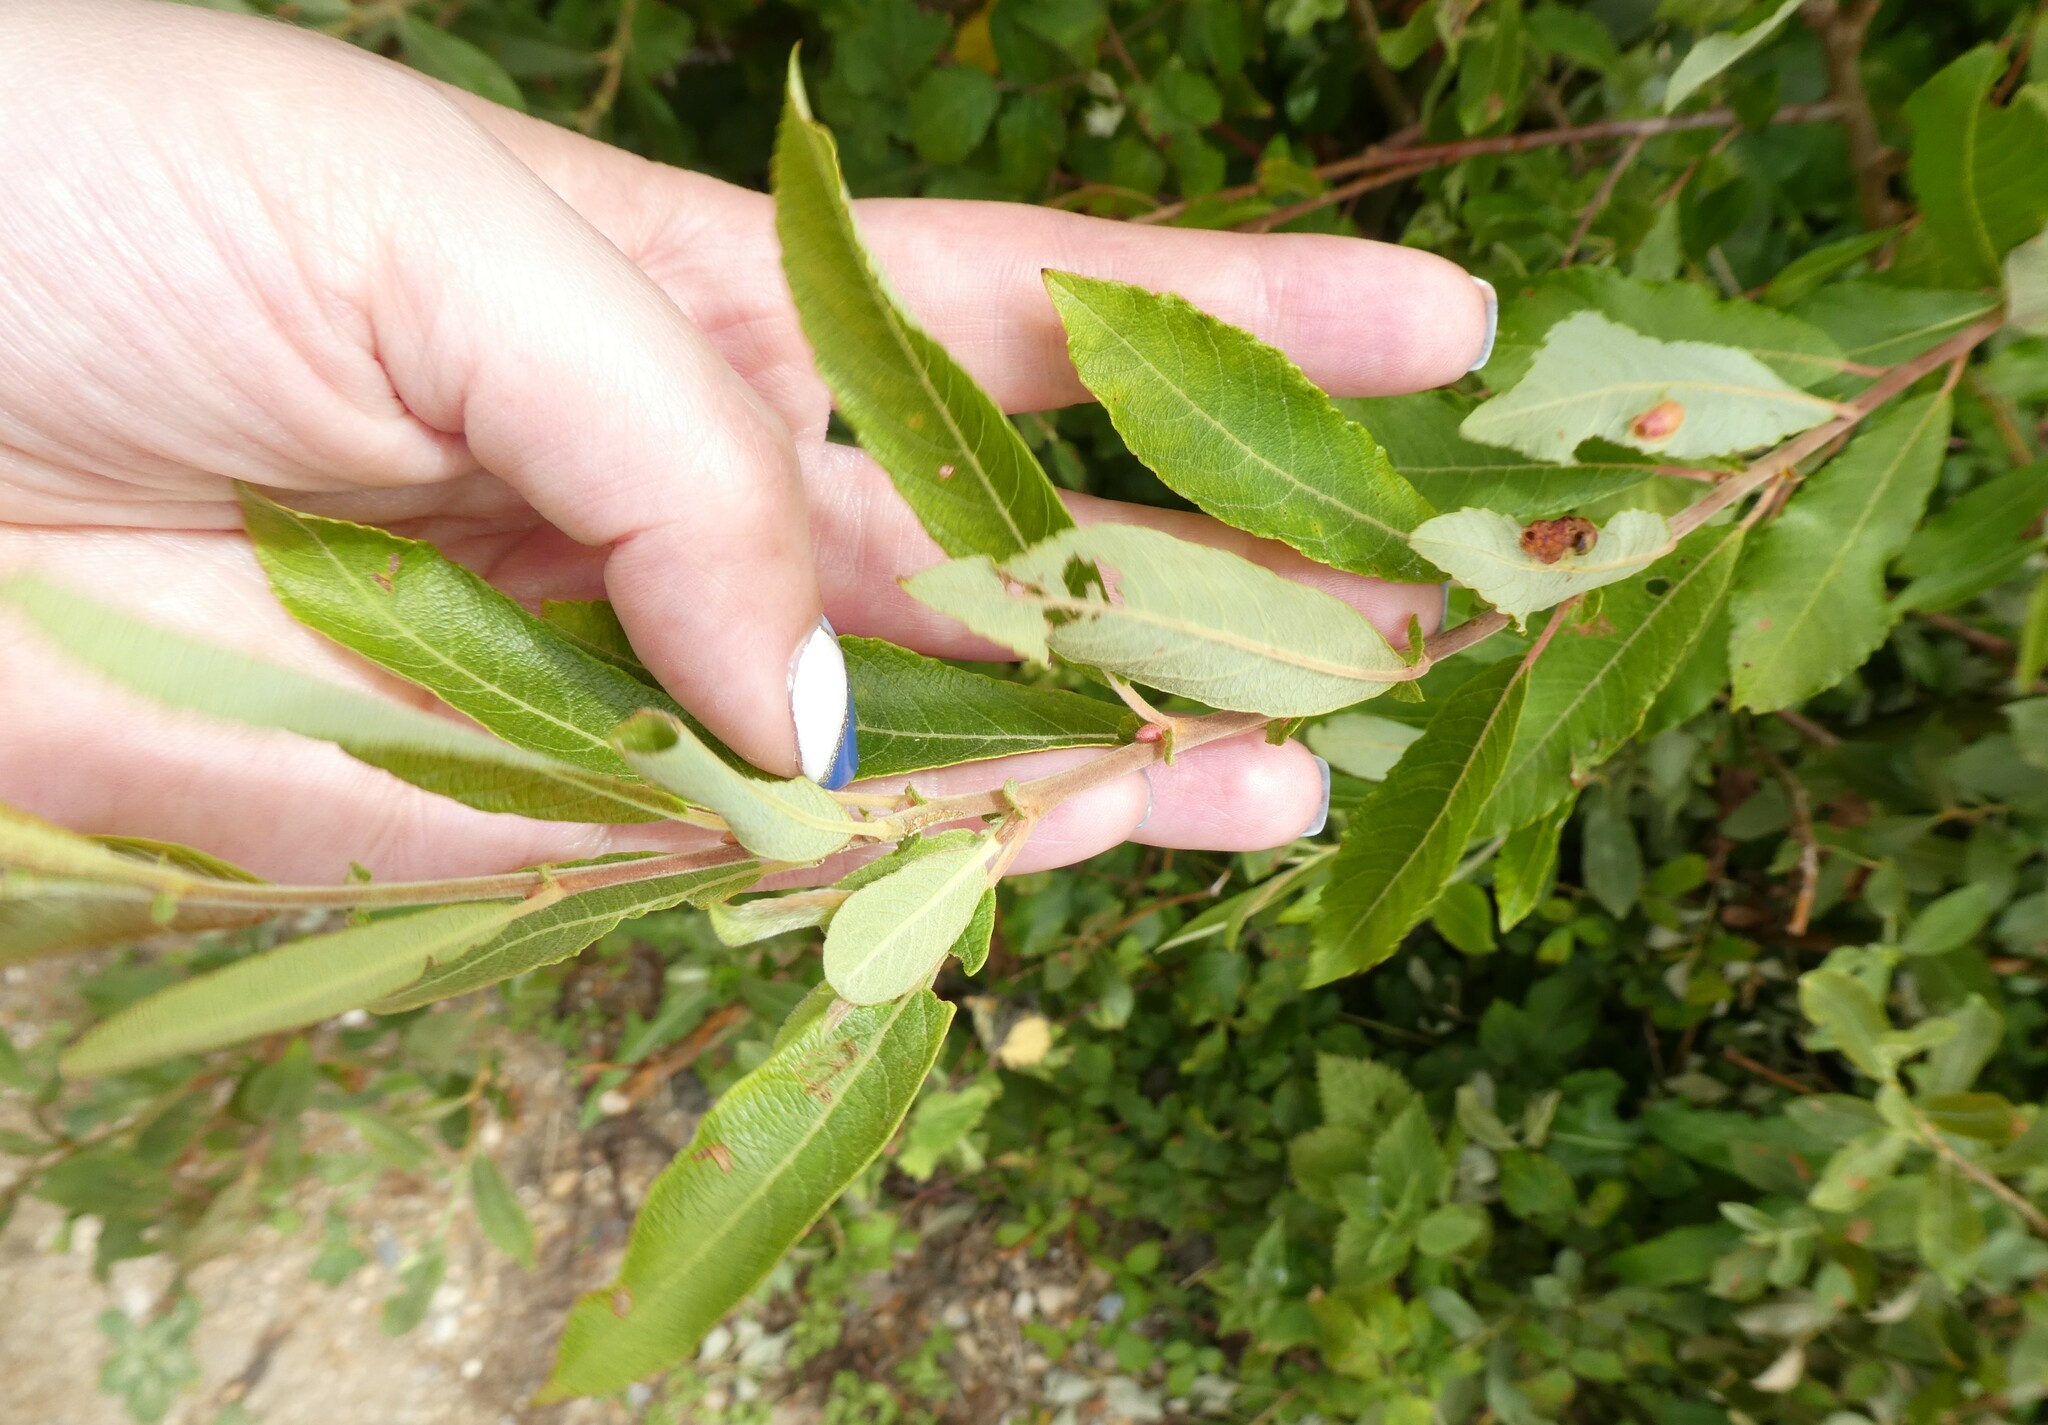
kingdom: Animalia
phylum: Arthropoda
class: Insecta
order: Hymenoptera
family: Tenthredinidae
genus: Pontania
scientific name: Pontania proxima
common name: Common sawfly
